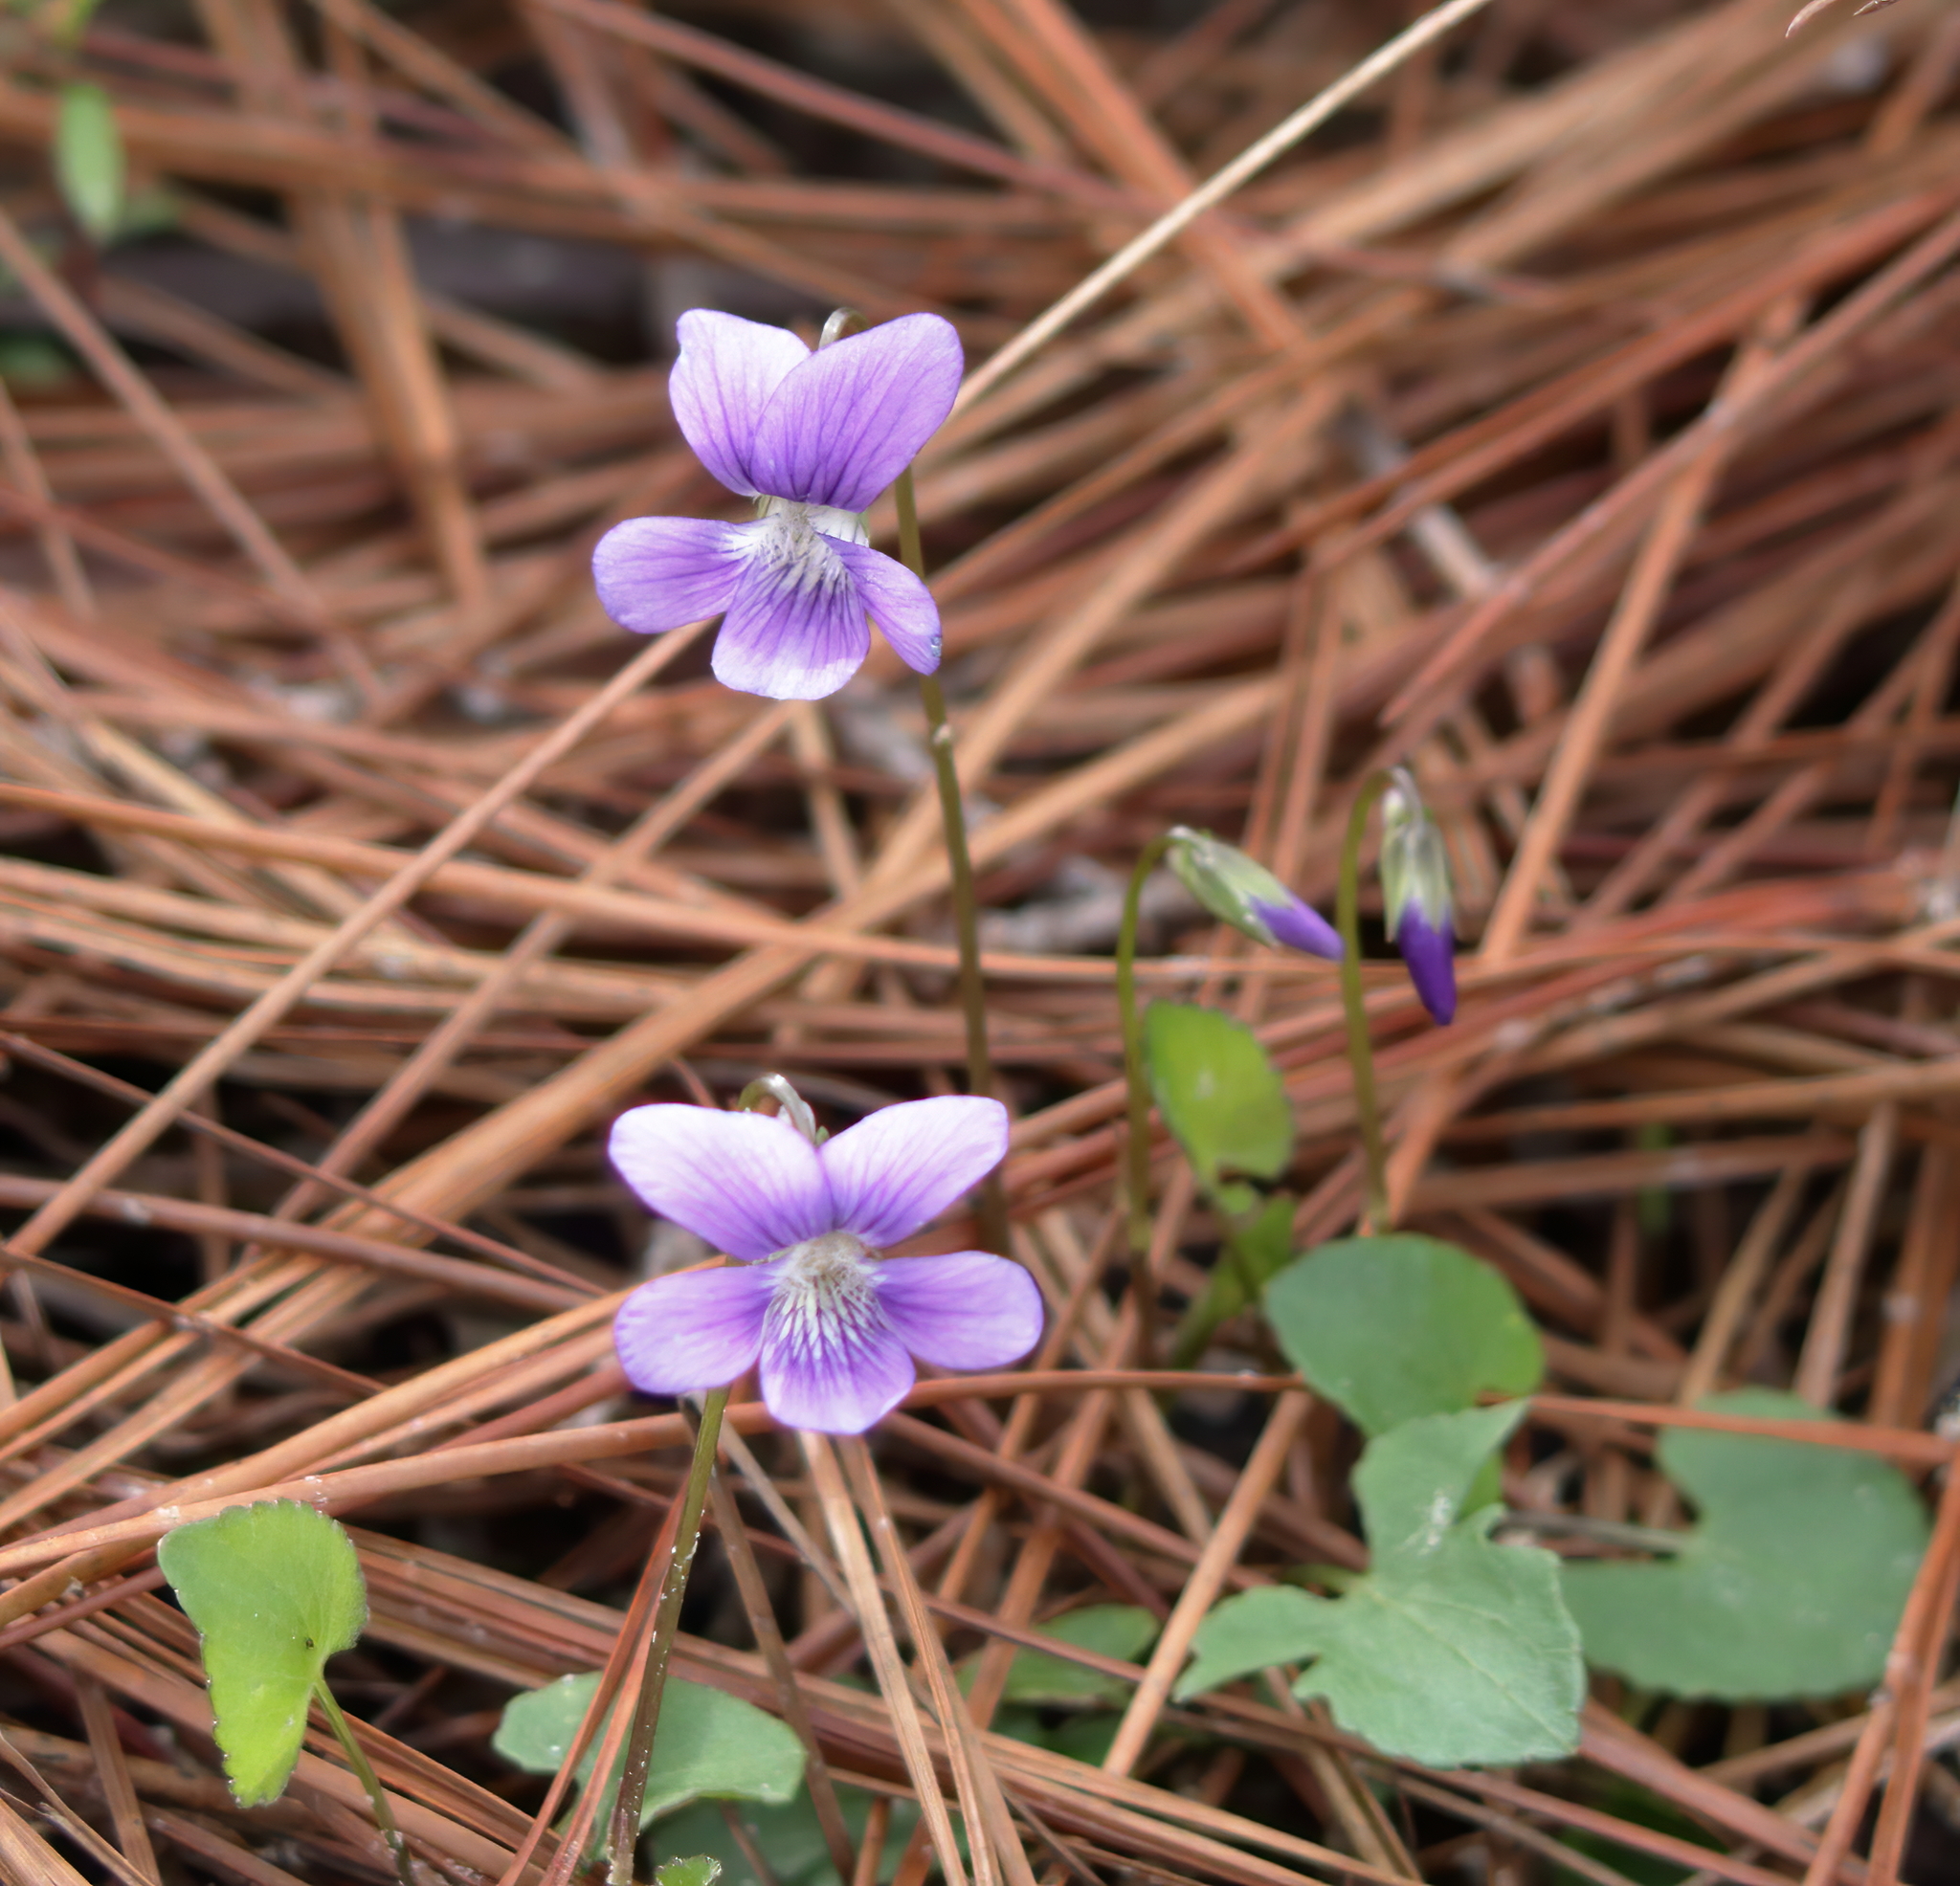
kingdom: Plantae
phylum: Tracheophyta
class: Magnoliopsida
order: Malpighiales
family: Violaceae
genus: Viola
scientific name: Viola septemloba
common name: Southern coast violet
